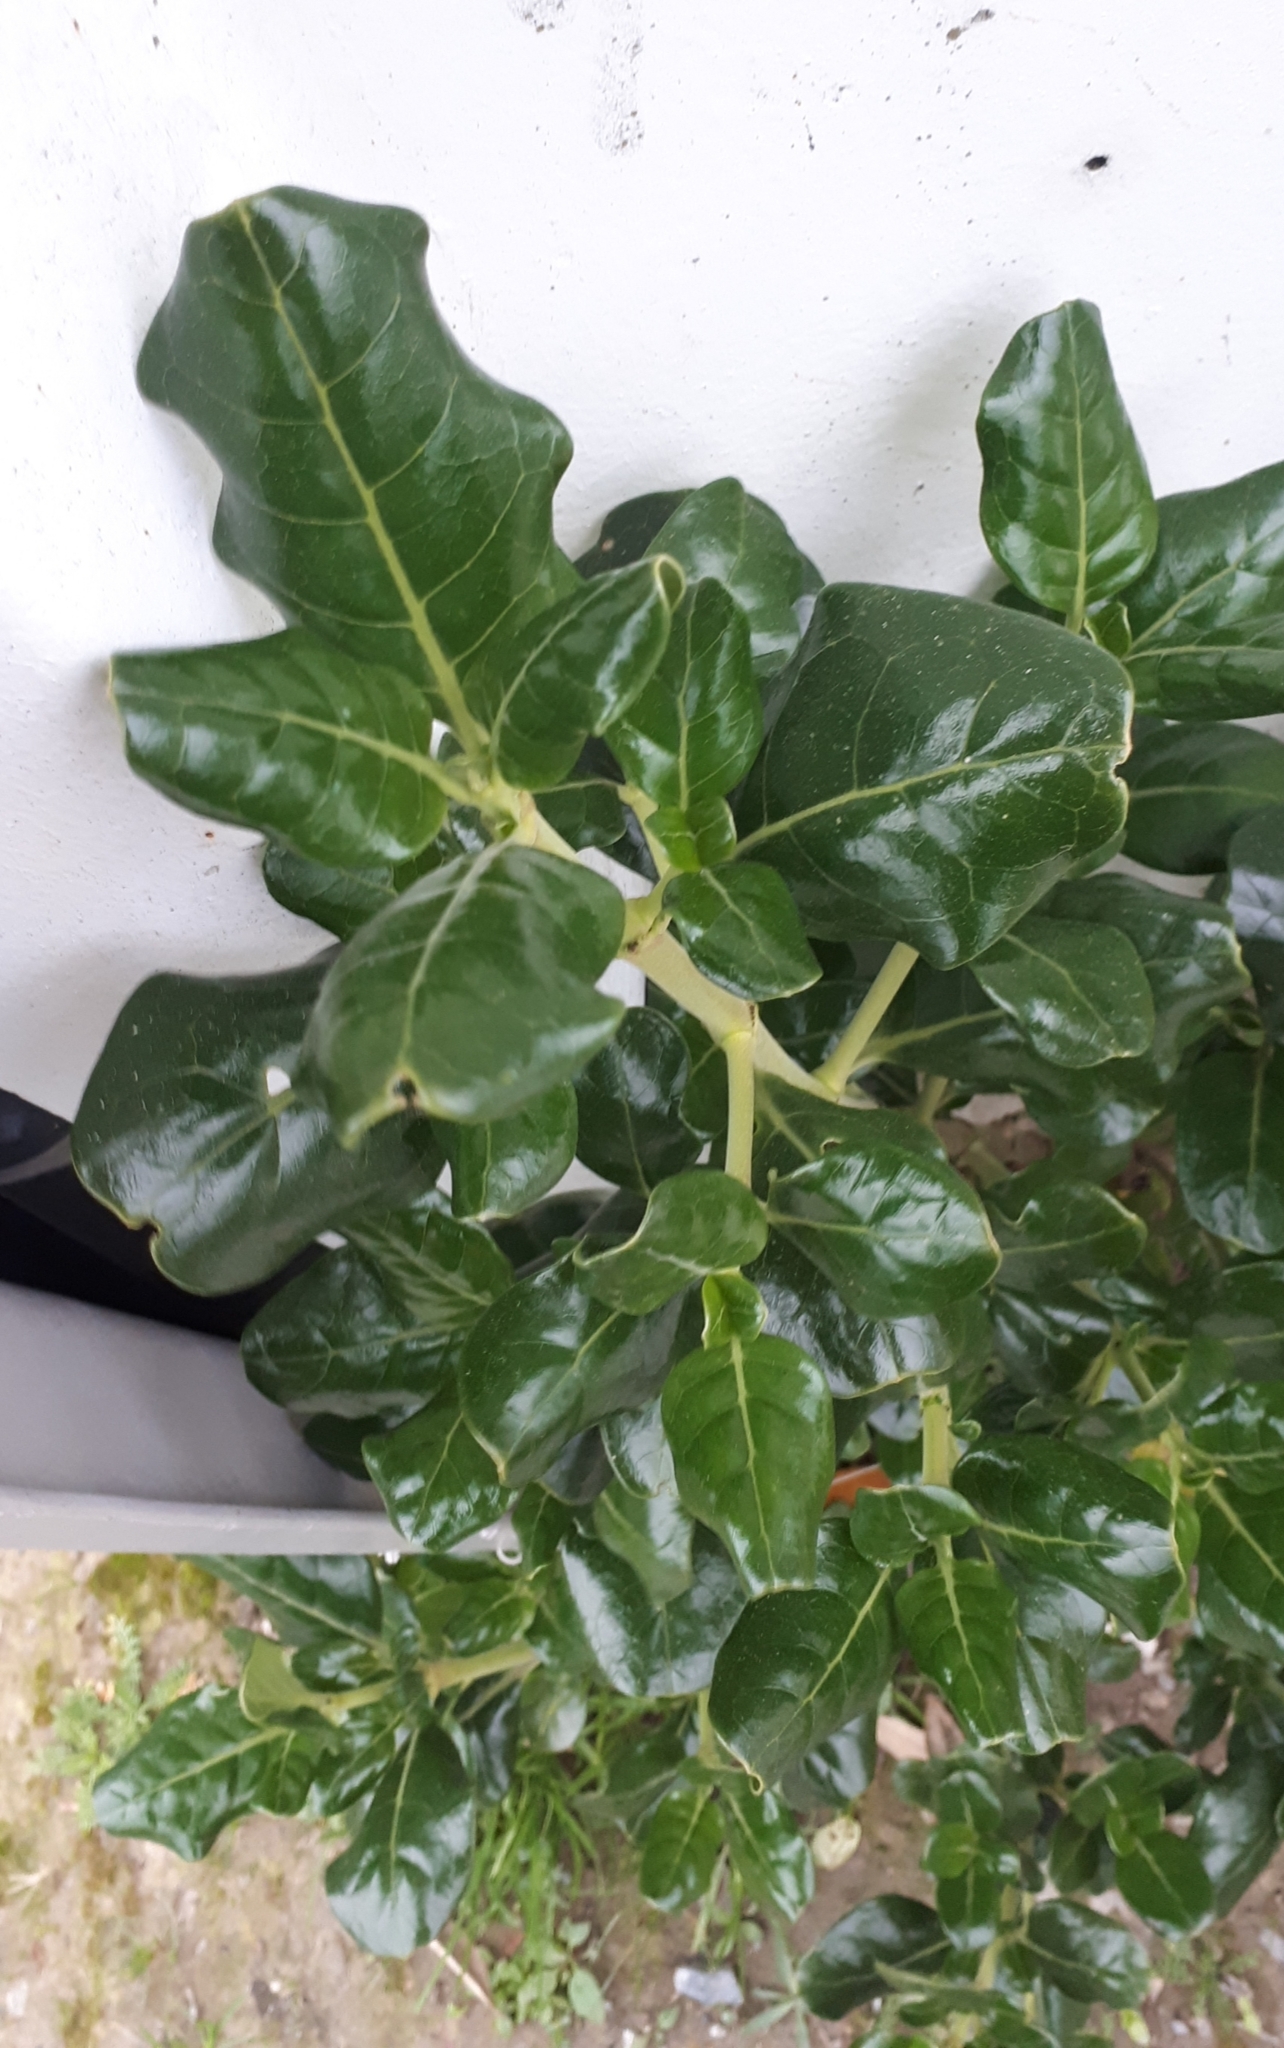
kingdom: Plantae
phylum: Tracheophyta
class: Magnoliopsida
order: Gentianales
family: Rubiaceae
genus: Coprosma
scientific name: Coprosma repens
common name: Tree bedstraw
